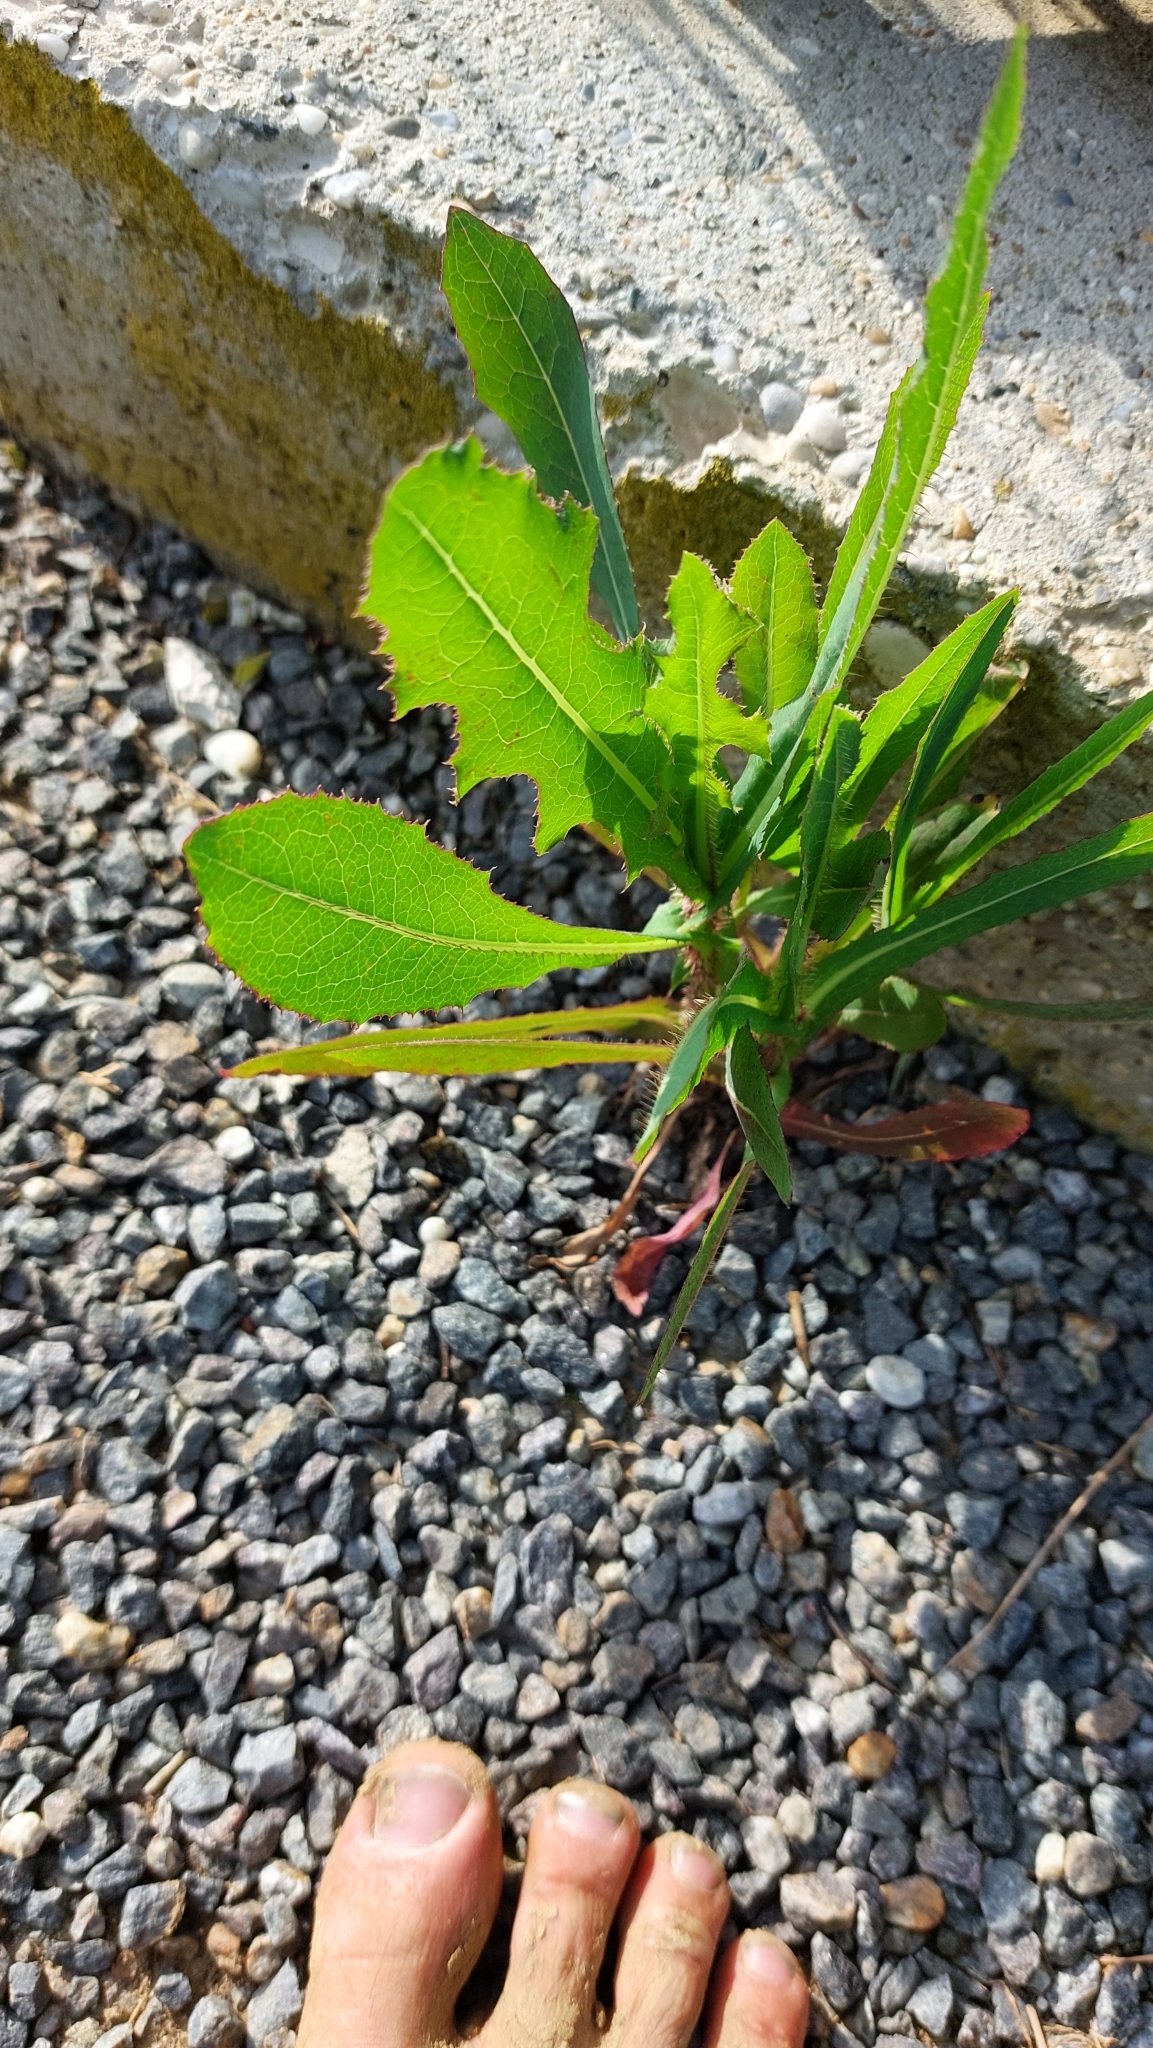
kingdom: Plantae
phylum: Tracheophyta
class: Magnoliopsida
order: Asterales
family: Asteraceae
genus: Lactuca
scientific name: Lactuca serriola
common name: Prickly lettuce
